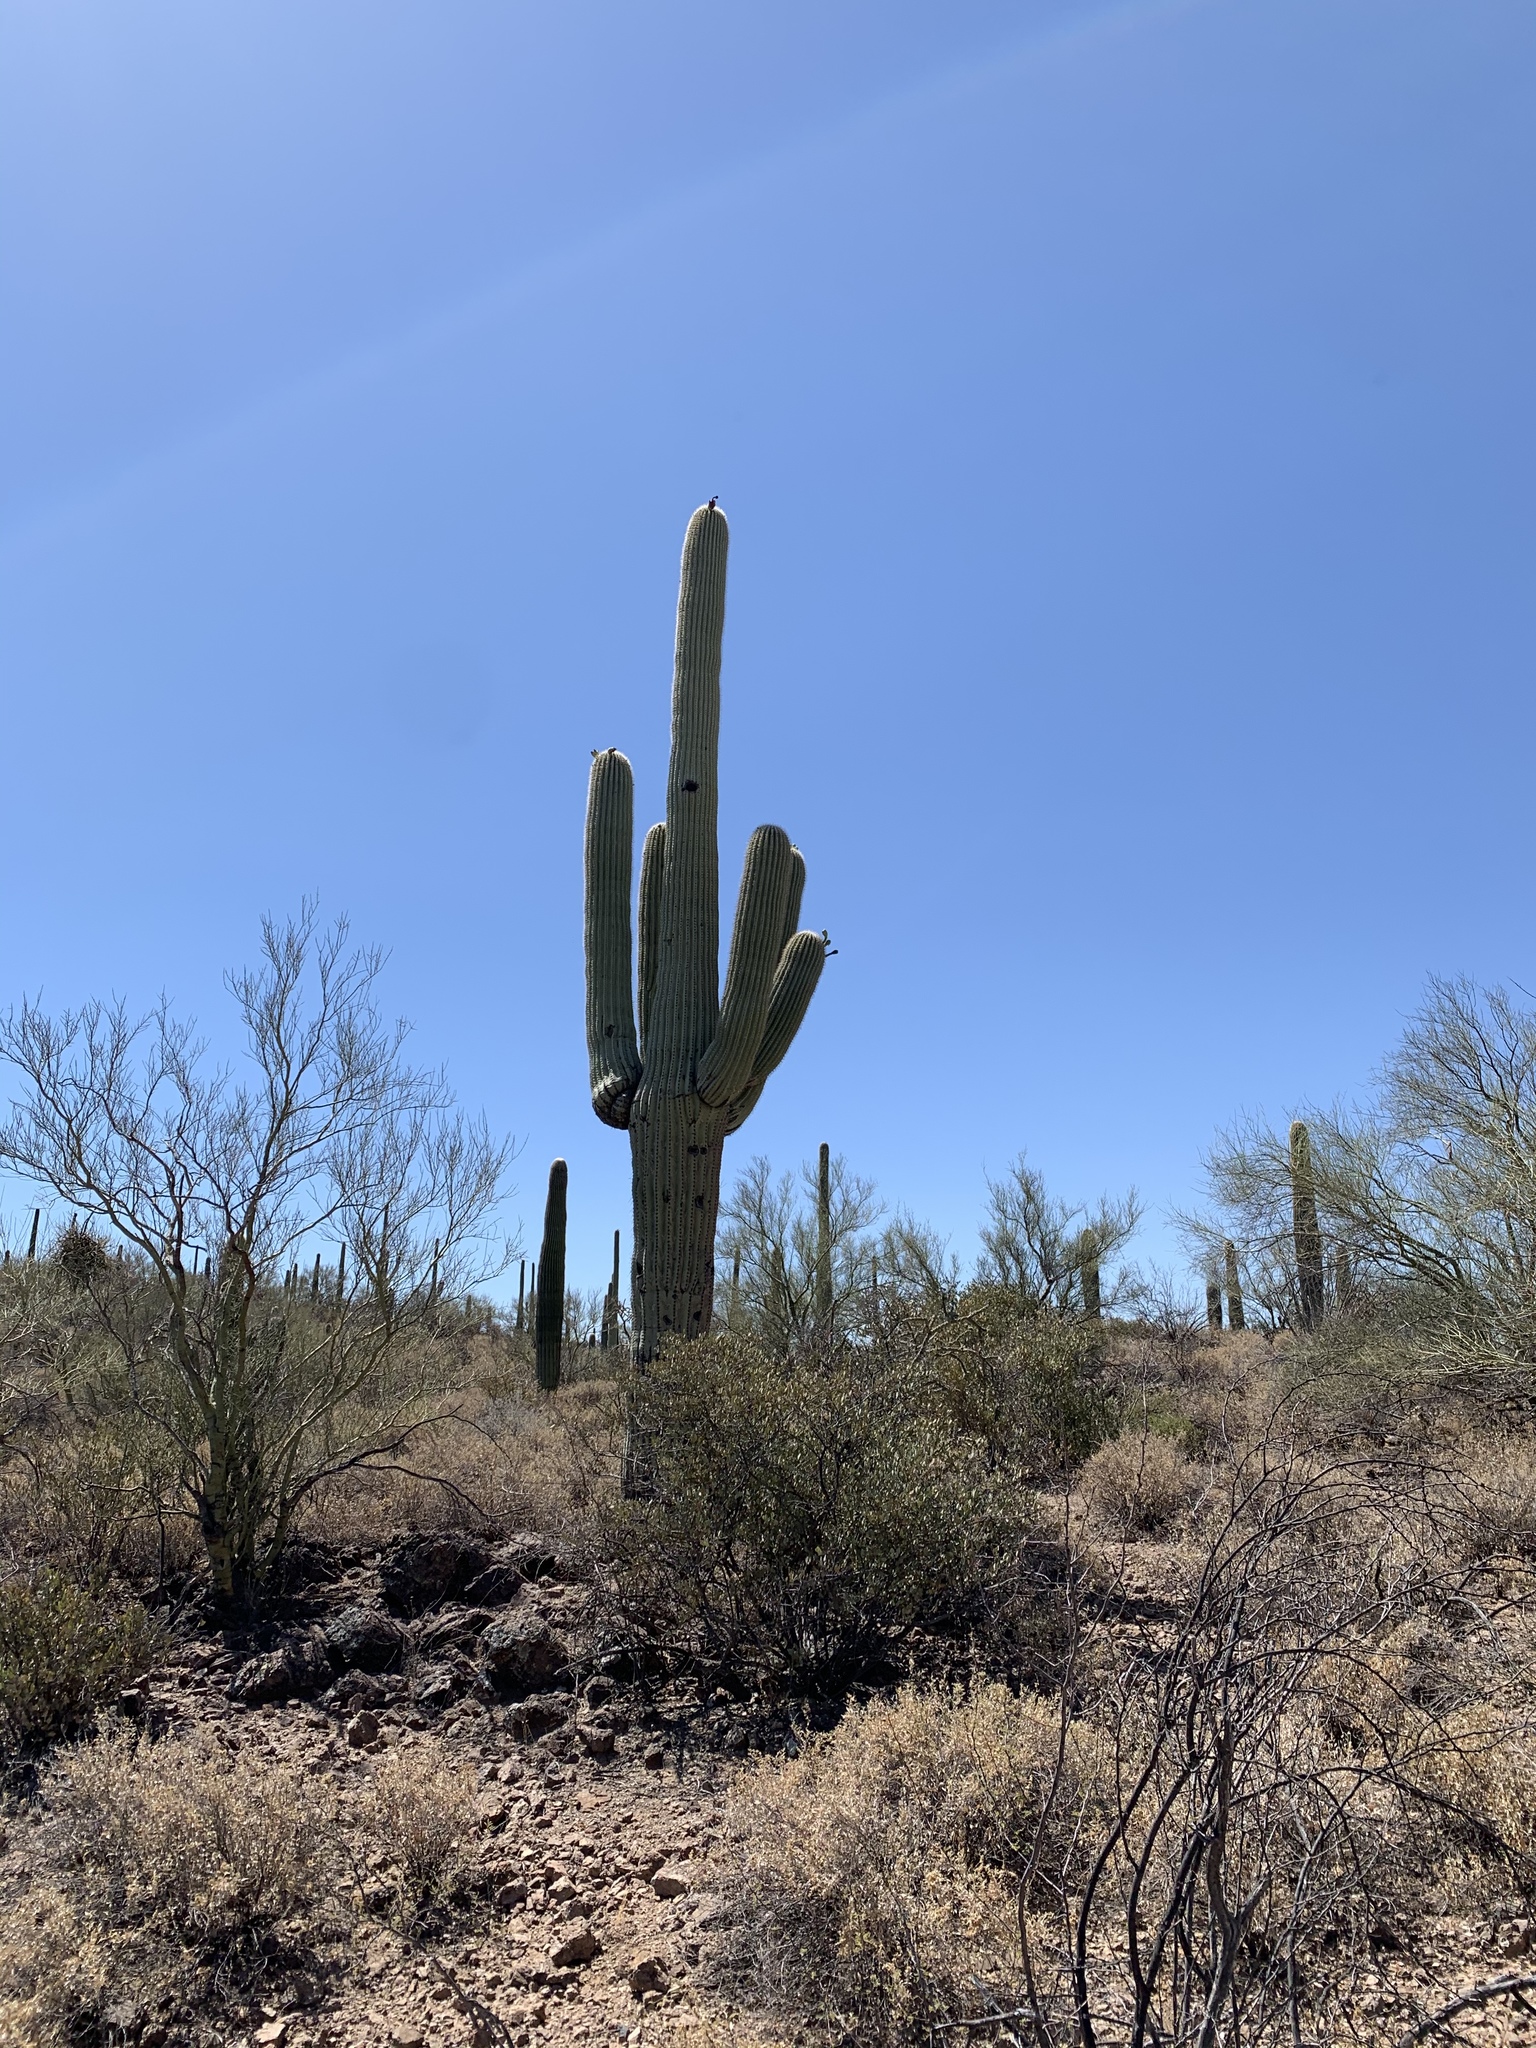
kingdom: Plantae
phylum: Tracheophyta
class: Magnoliopsida
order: Caryophyllales
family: Cactaceae
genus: Carnegiea
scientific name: Carnegiea gigantea
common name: Saguaro
